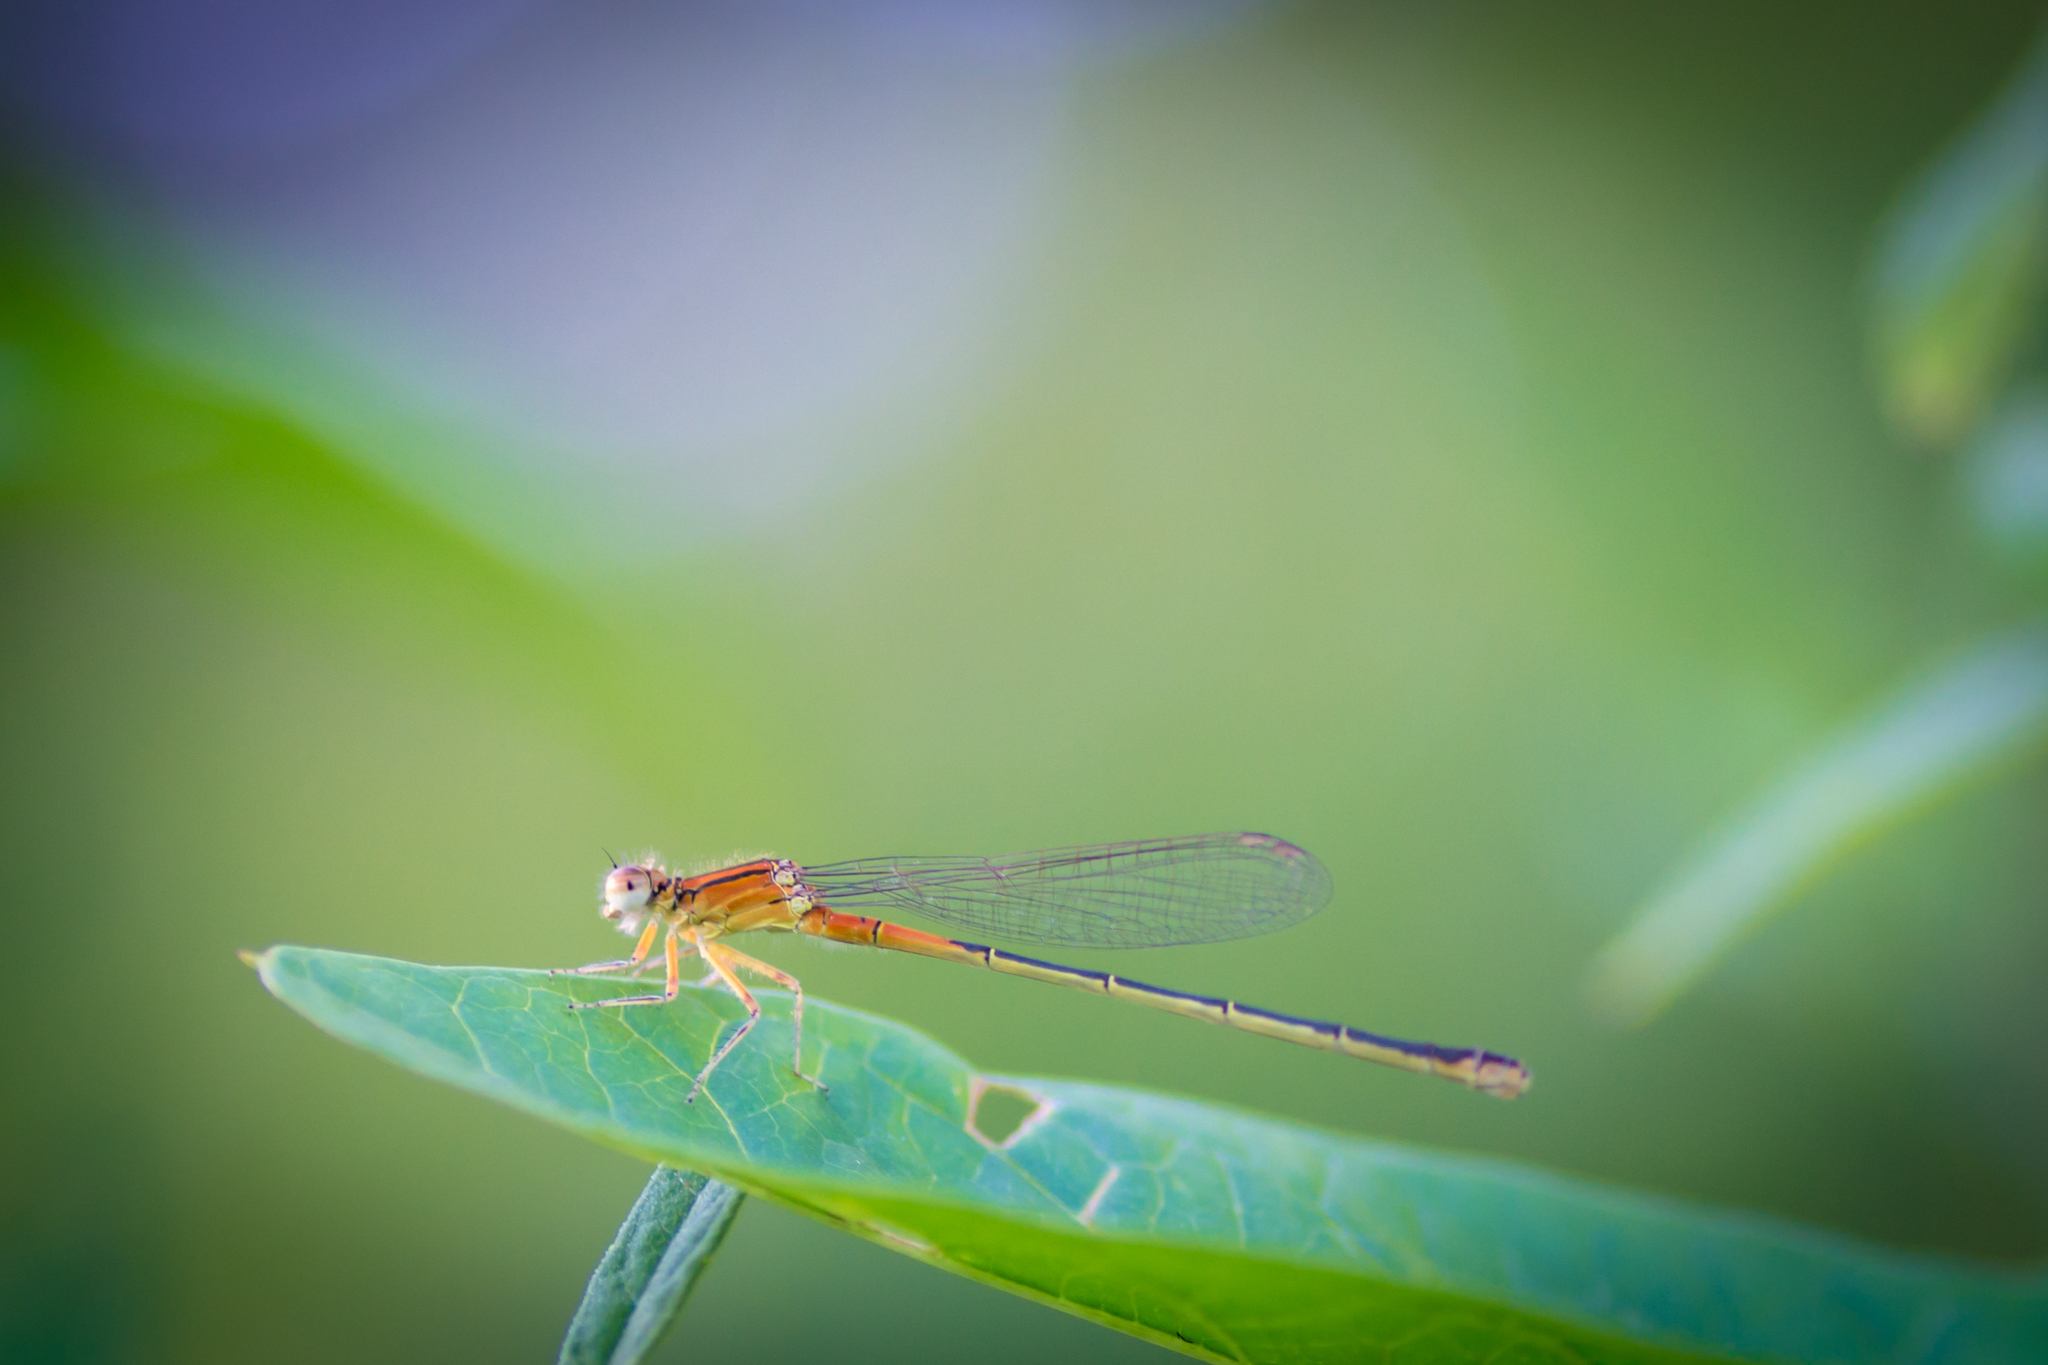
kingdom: Animalia
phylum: Arthropoda
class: Insecta
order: Odonata
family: Coenagrionidae
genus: Ischnura
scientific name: Ischnura verticalis
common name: Eastern forktail
